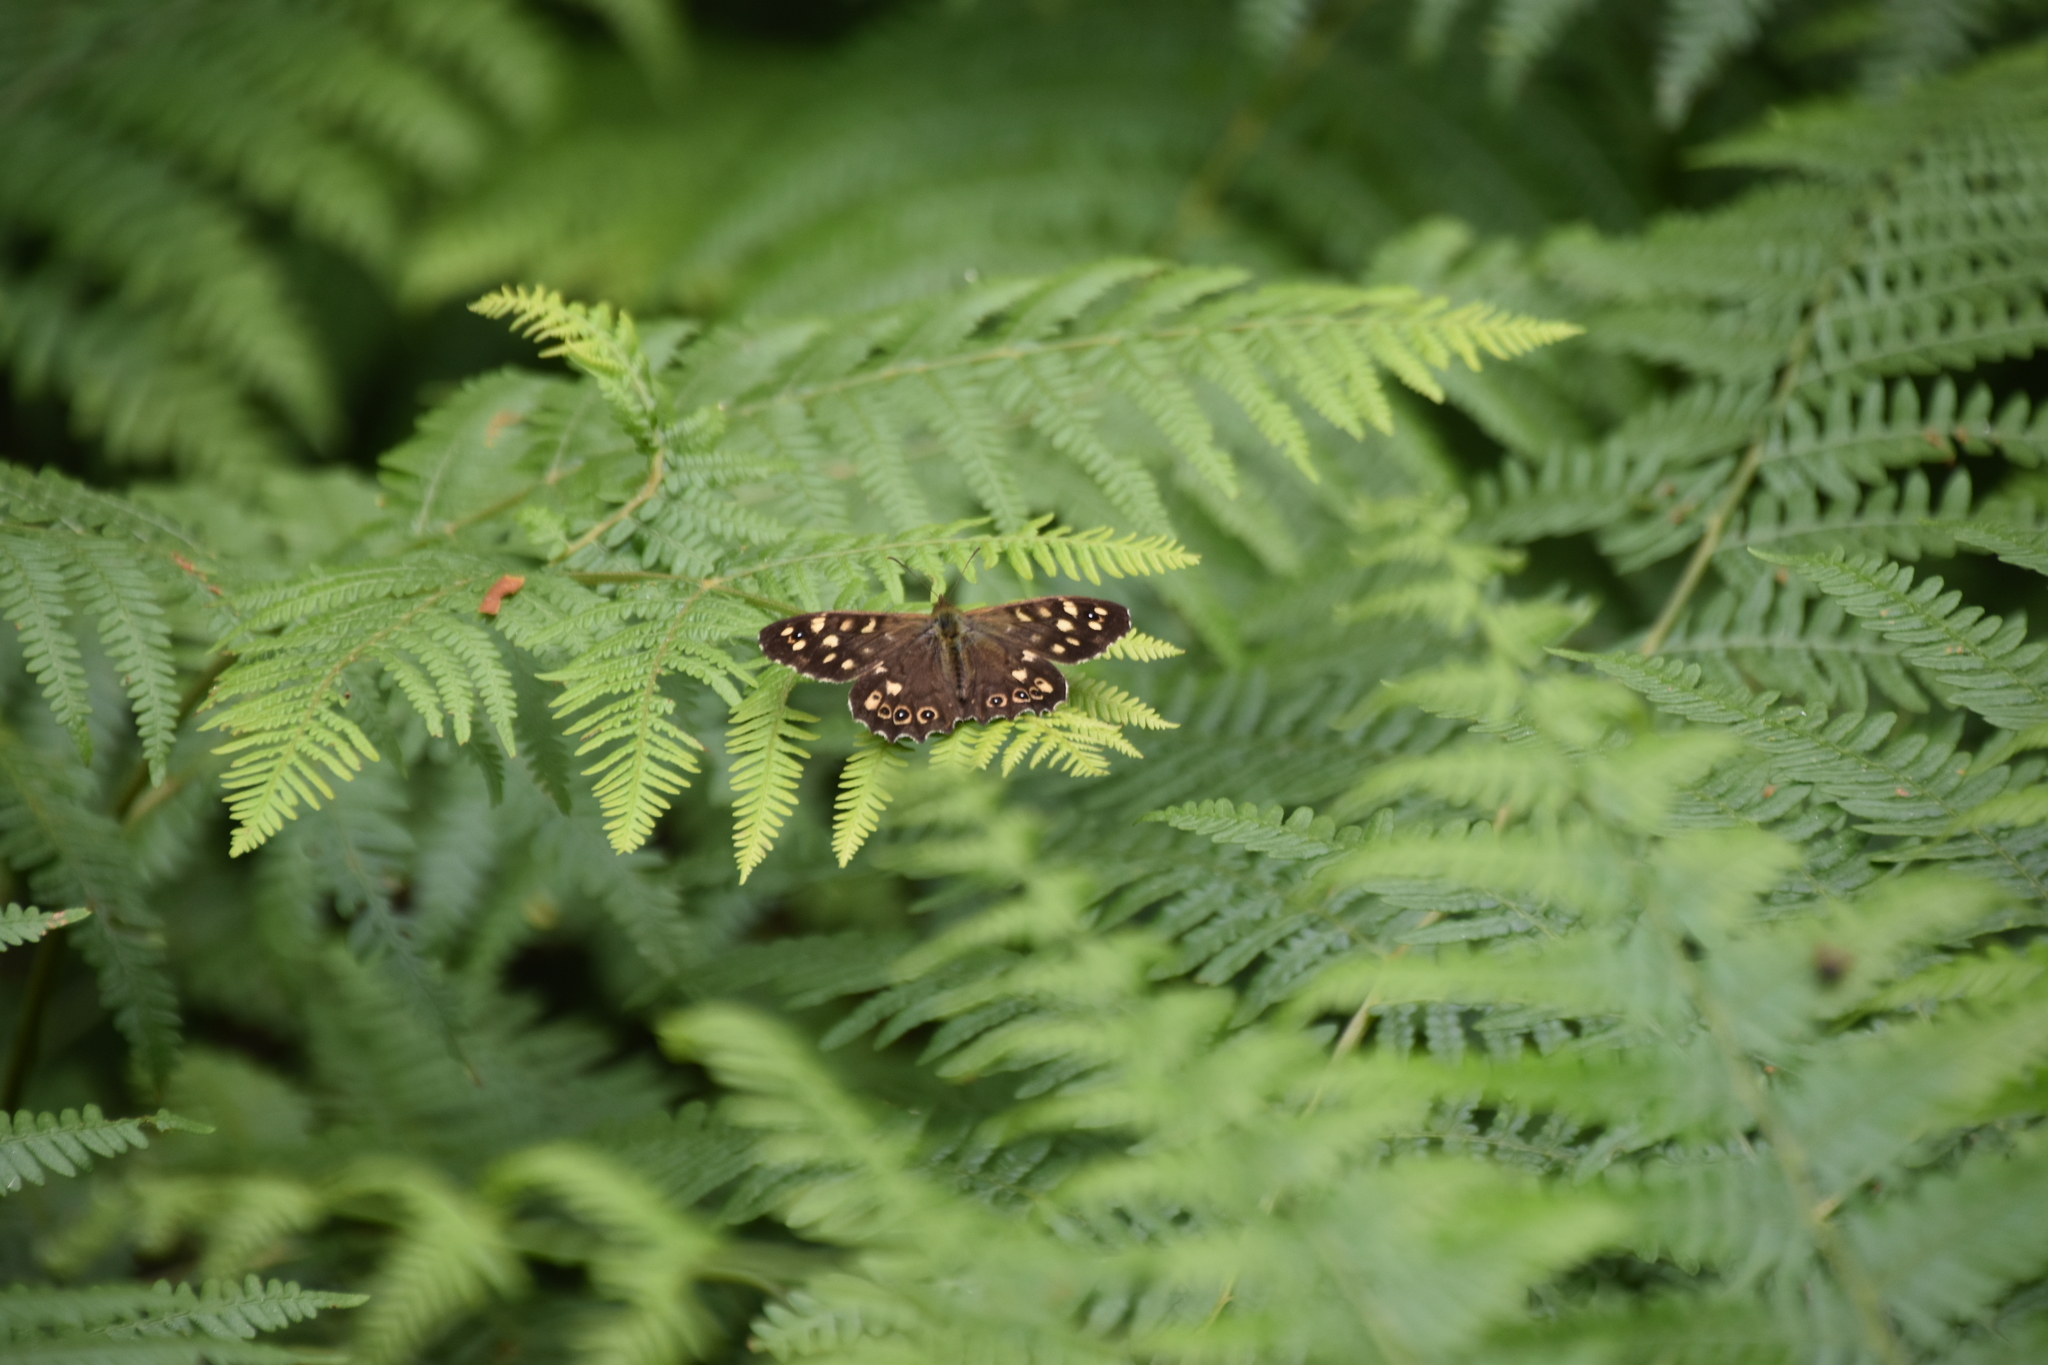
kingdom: Animalia
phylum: Arthropoda
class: Insecta
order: Lepidoptera
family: Nymphalidae
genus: Pararge
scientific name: Pararge aegeria
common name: Speckled wood
